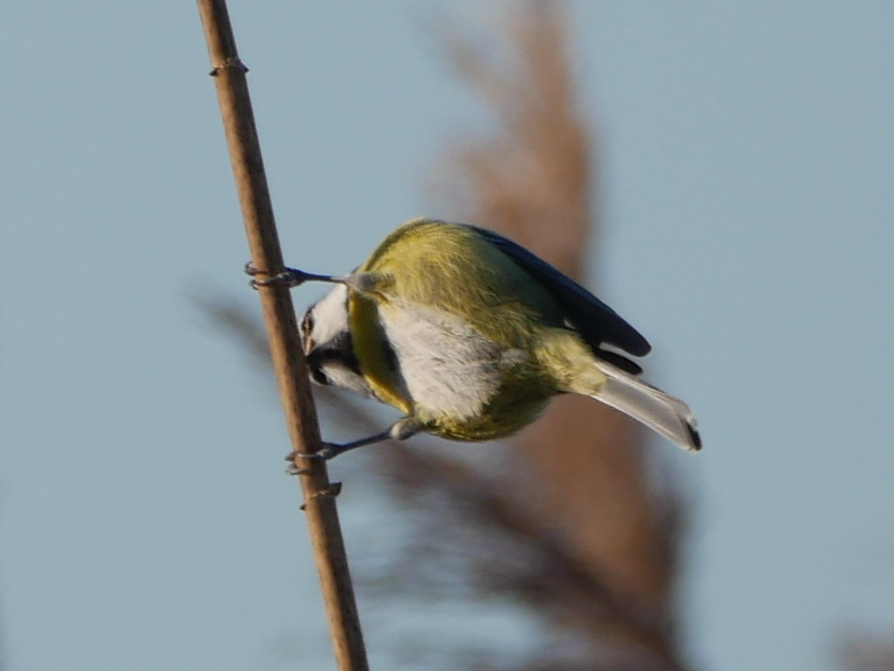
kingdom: Animalia
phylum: Chordata
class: Aves
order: Passeriformes
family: Paridae
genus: Cyanistes
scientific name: Cyanistes caeruleus
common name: Eurasian blue tit
